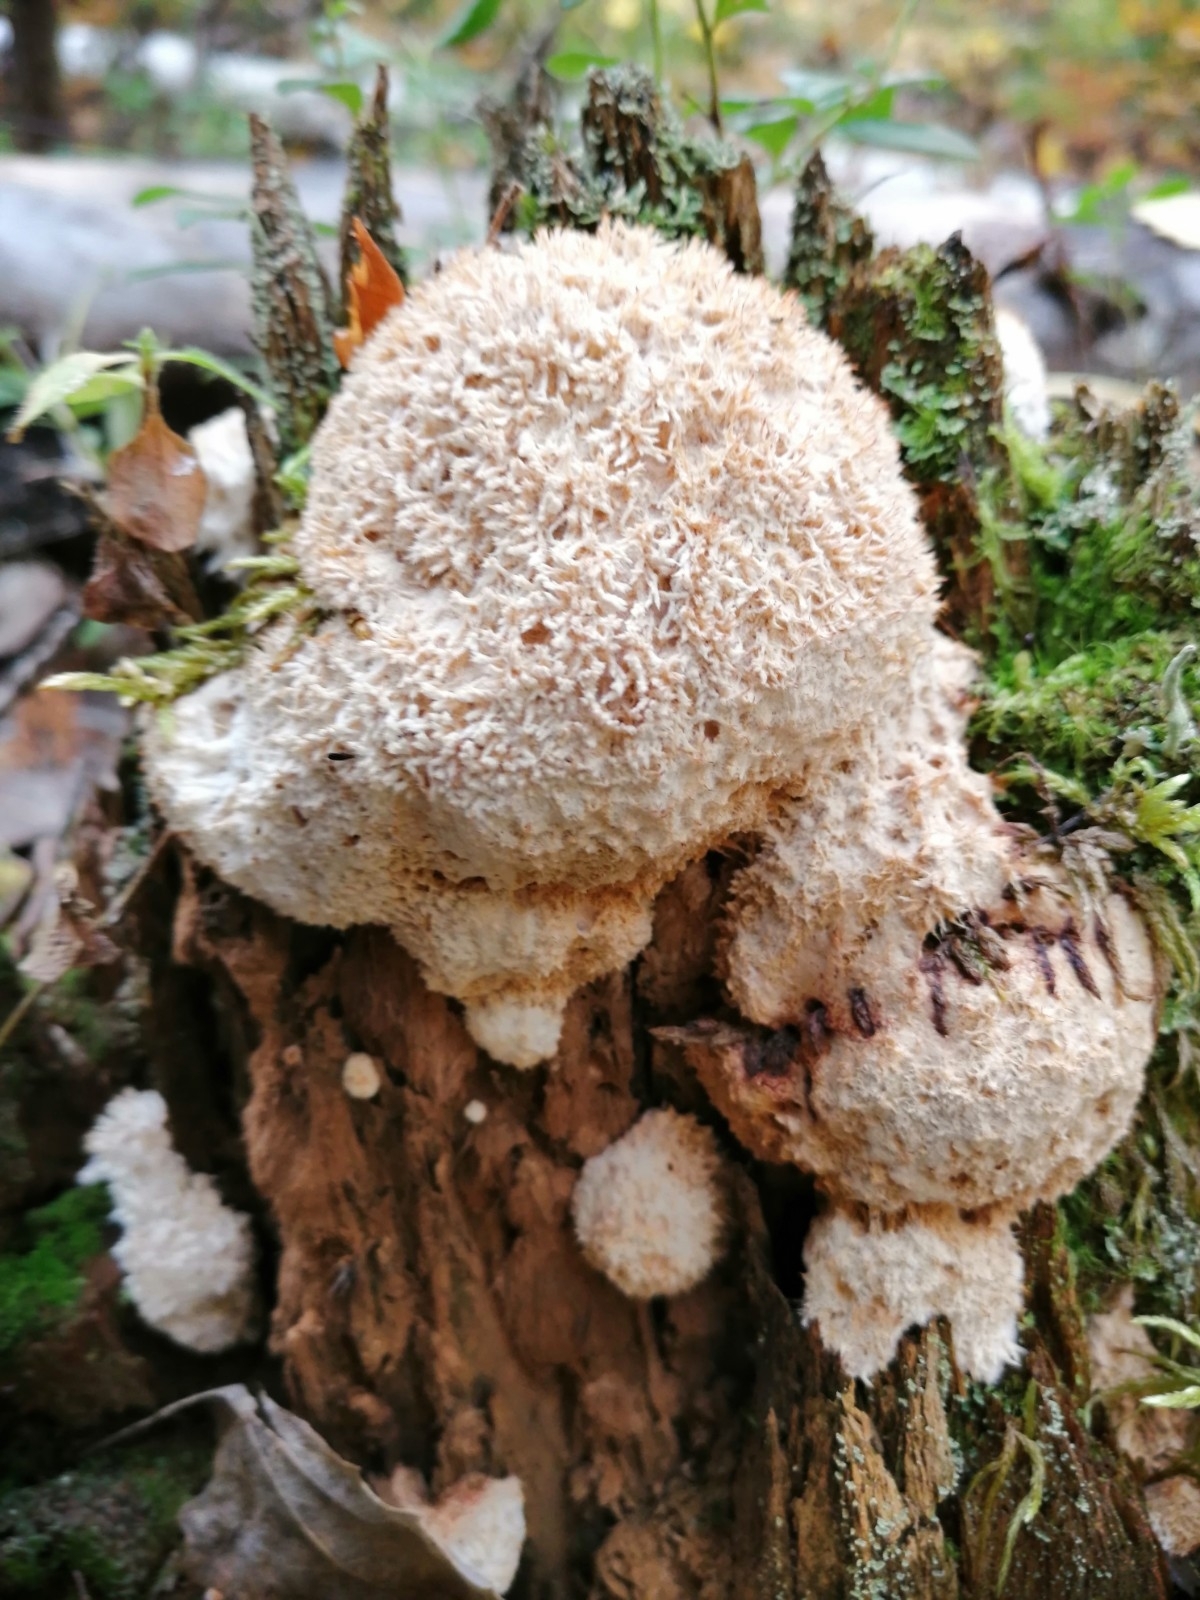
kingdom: Fungi
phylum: Basidiomycota
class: Agaricomycetes
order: Polyporales
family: Dacryobolaceae
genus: Postia
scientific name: Postia ptychogaster
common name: Powderpuff bracket
